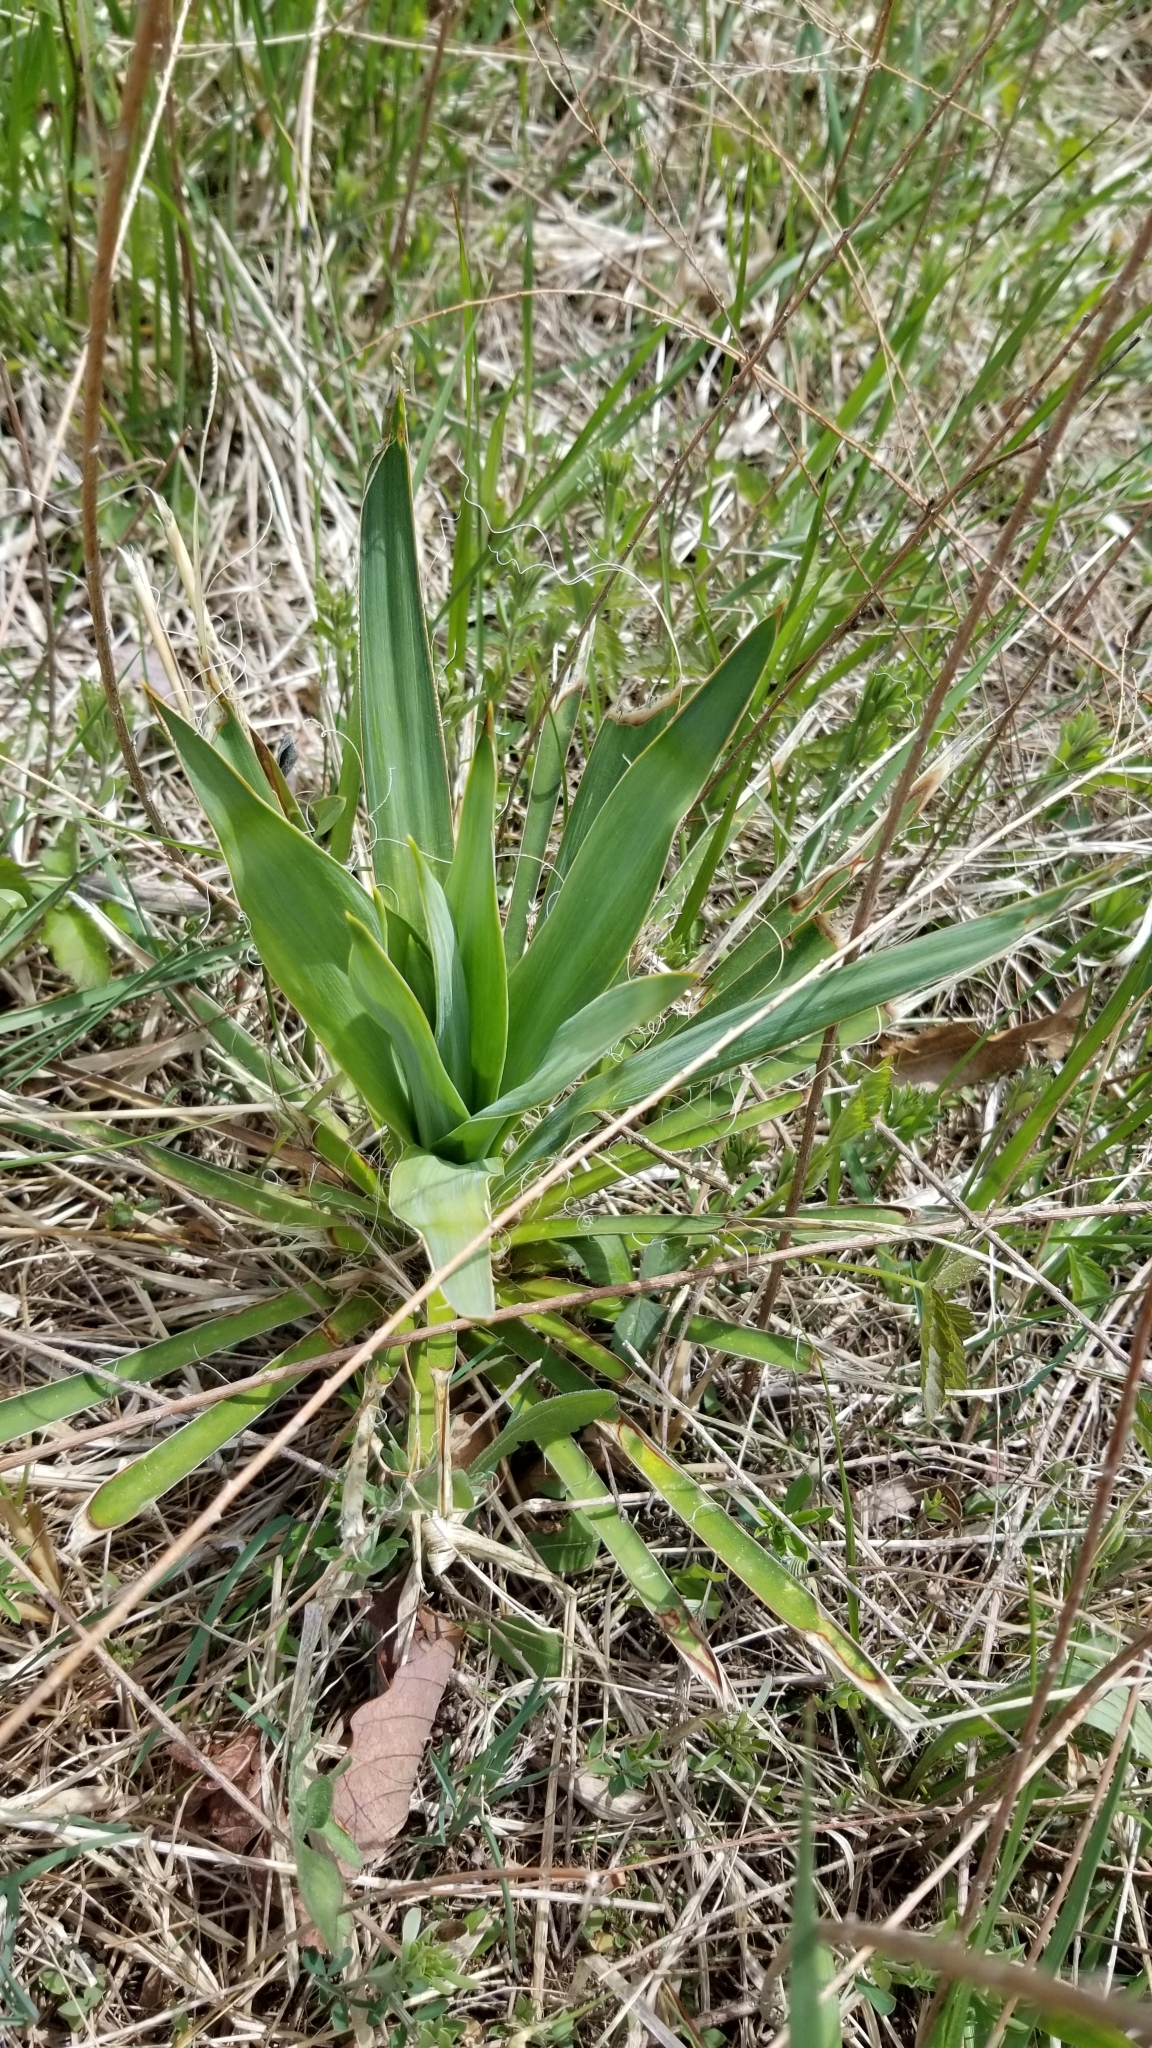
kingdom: Plantae
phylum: Tracheophyta
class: Liliopsida
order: Asparagales
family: Asparagaceae
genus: Yucca
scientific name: Yucca filamentosa
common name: Adam's-needle
